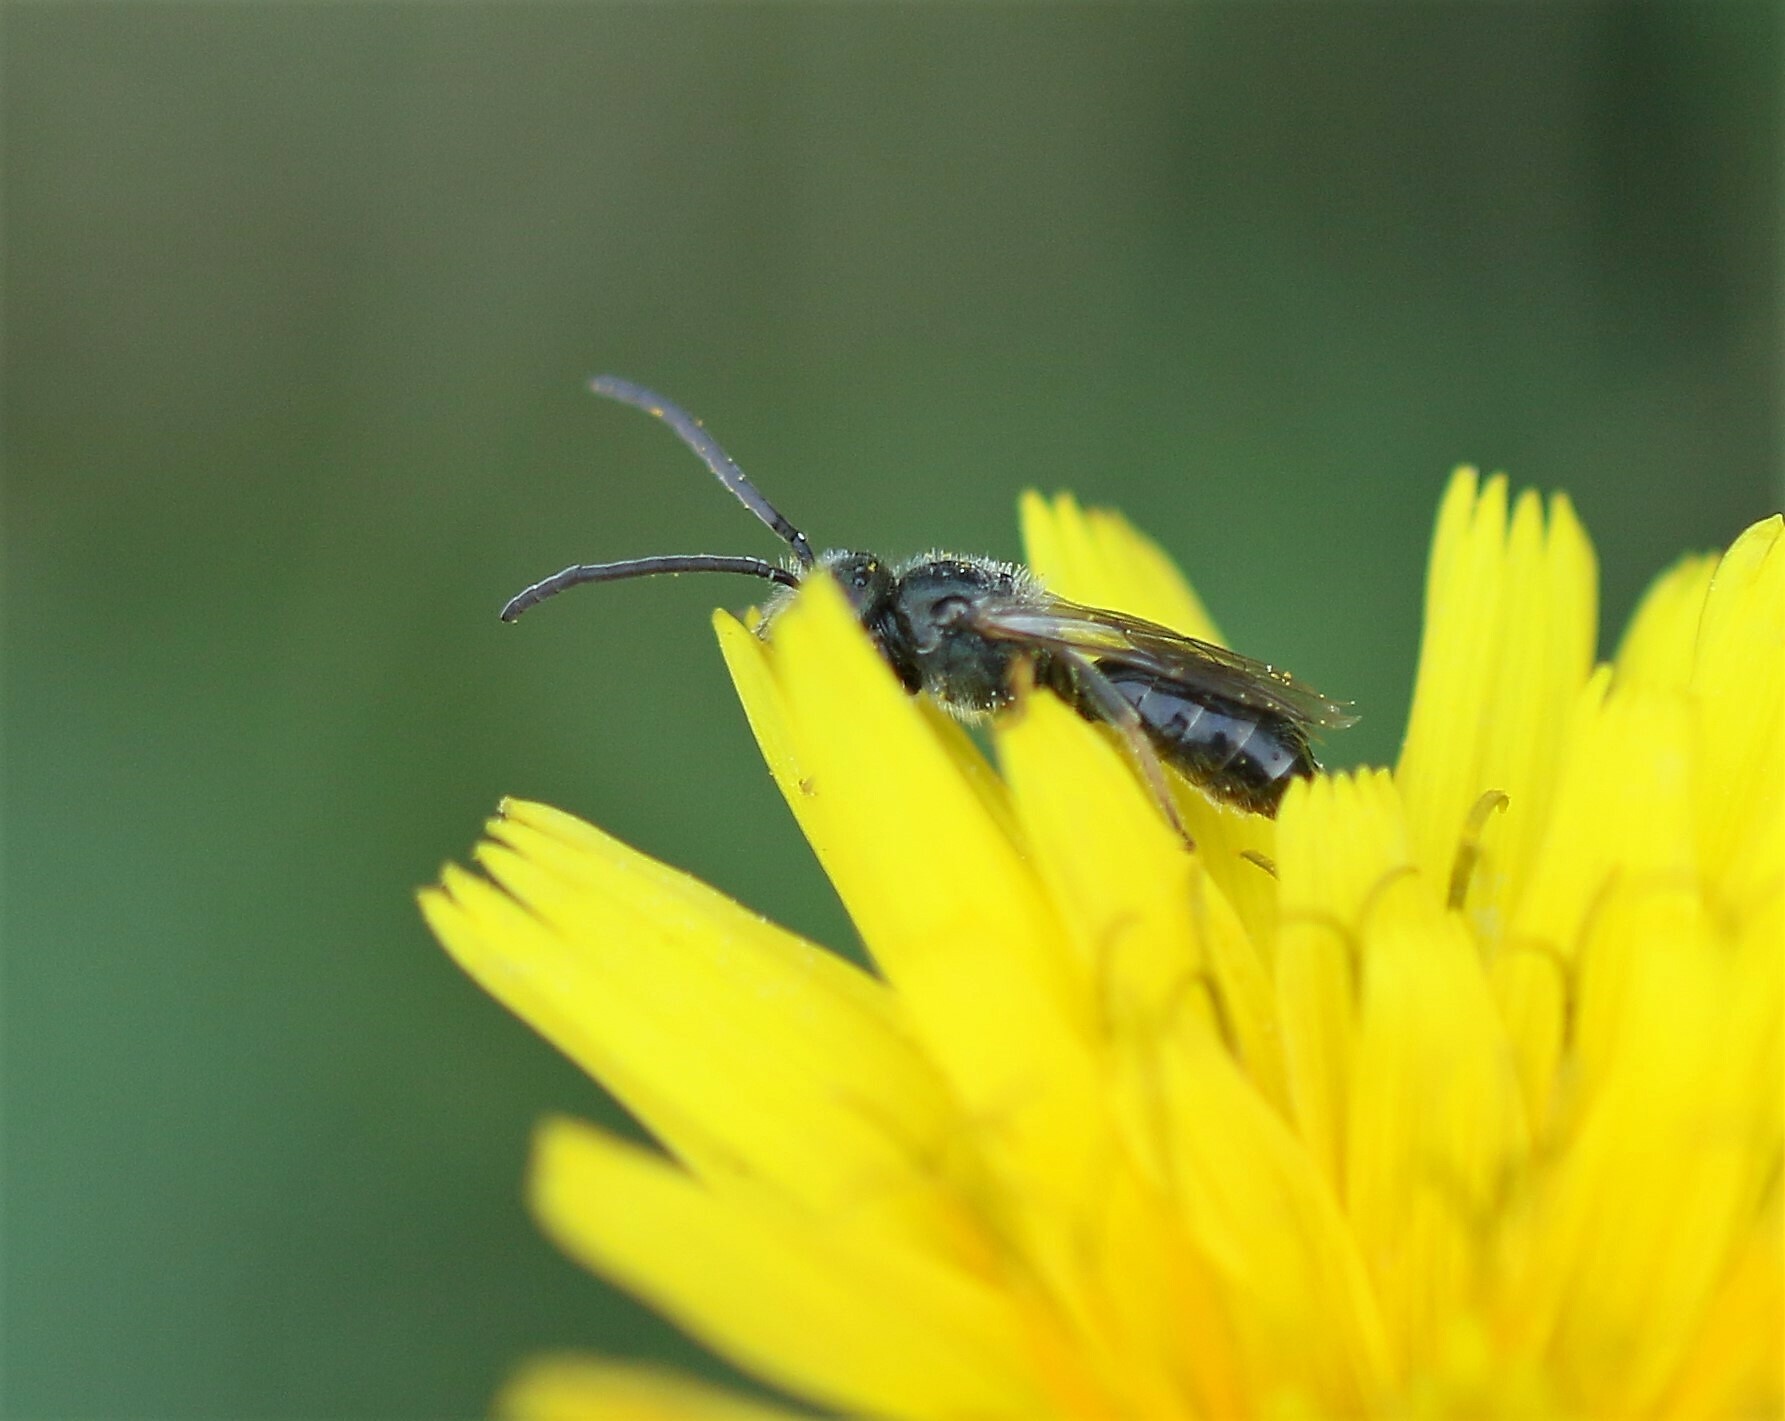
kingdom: Animalia
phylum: Arthropoda
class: Insecta
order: Hymenoptera
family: Halictidae
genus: Dialictus
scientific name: Dialictus
